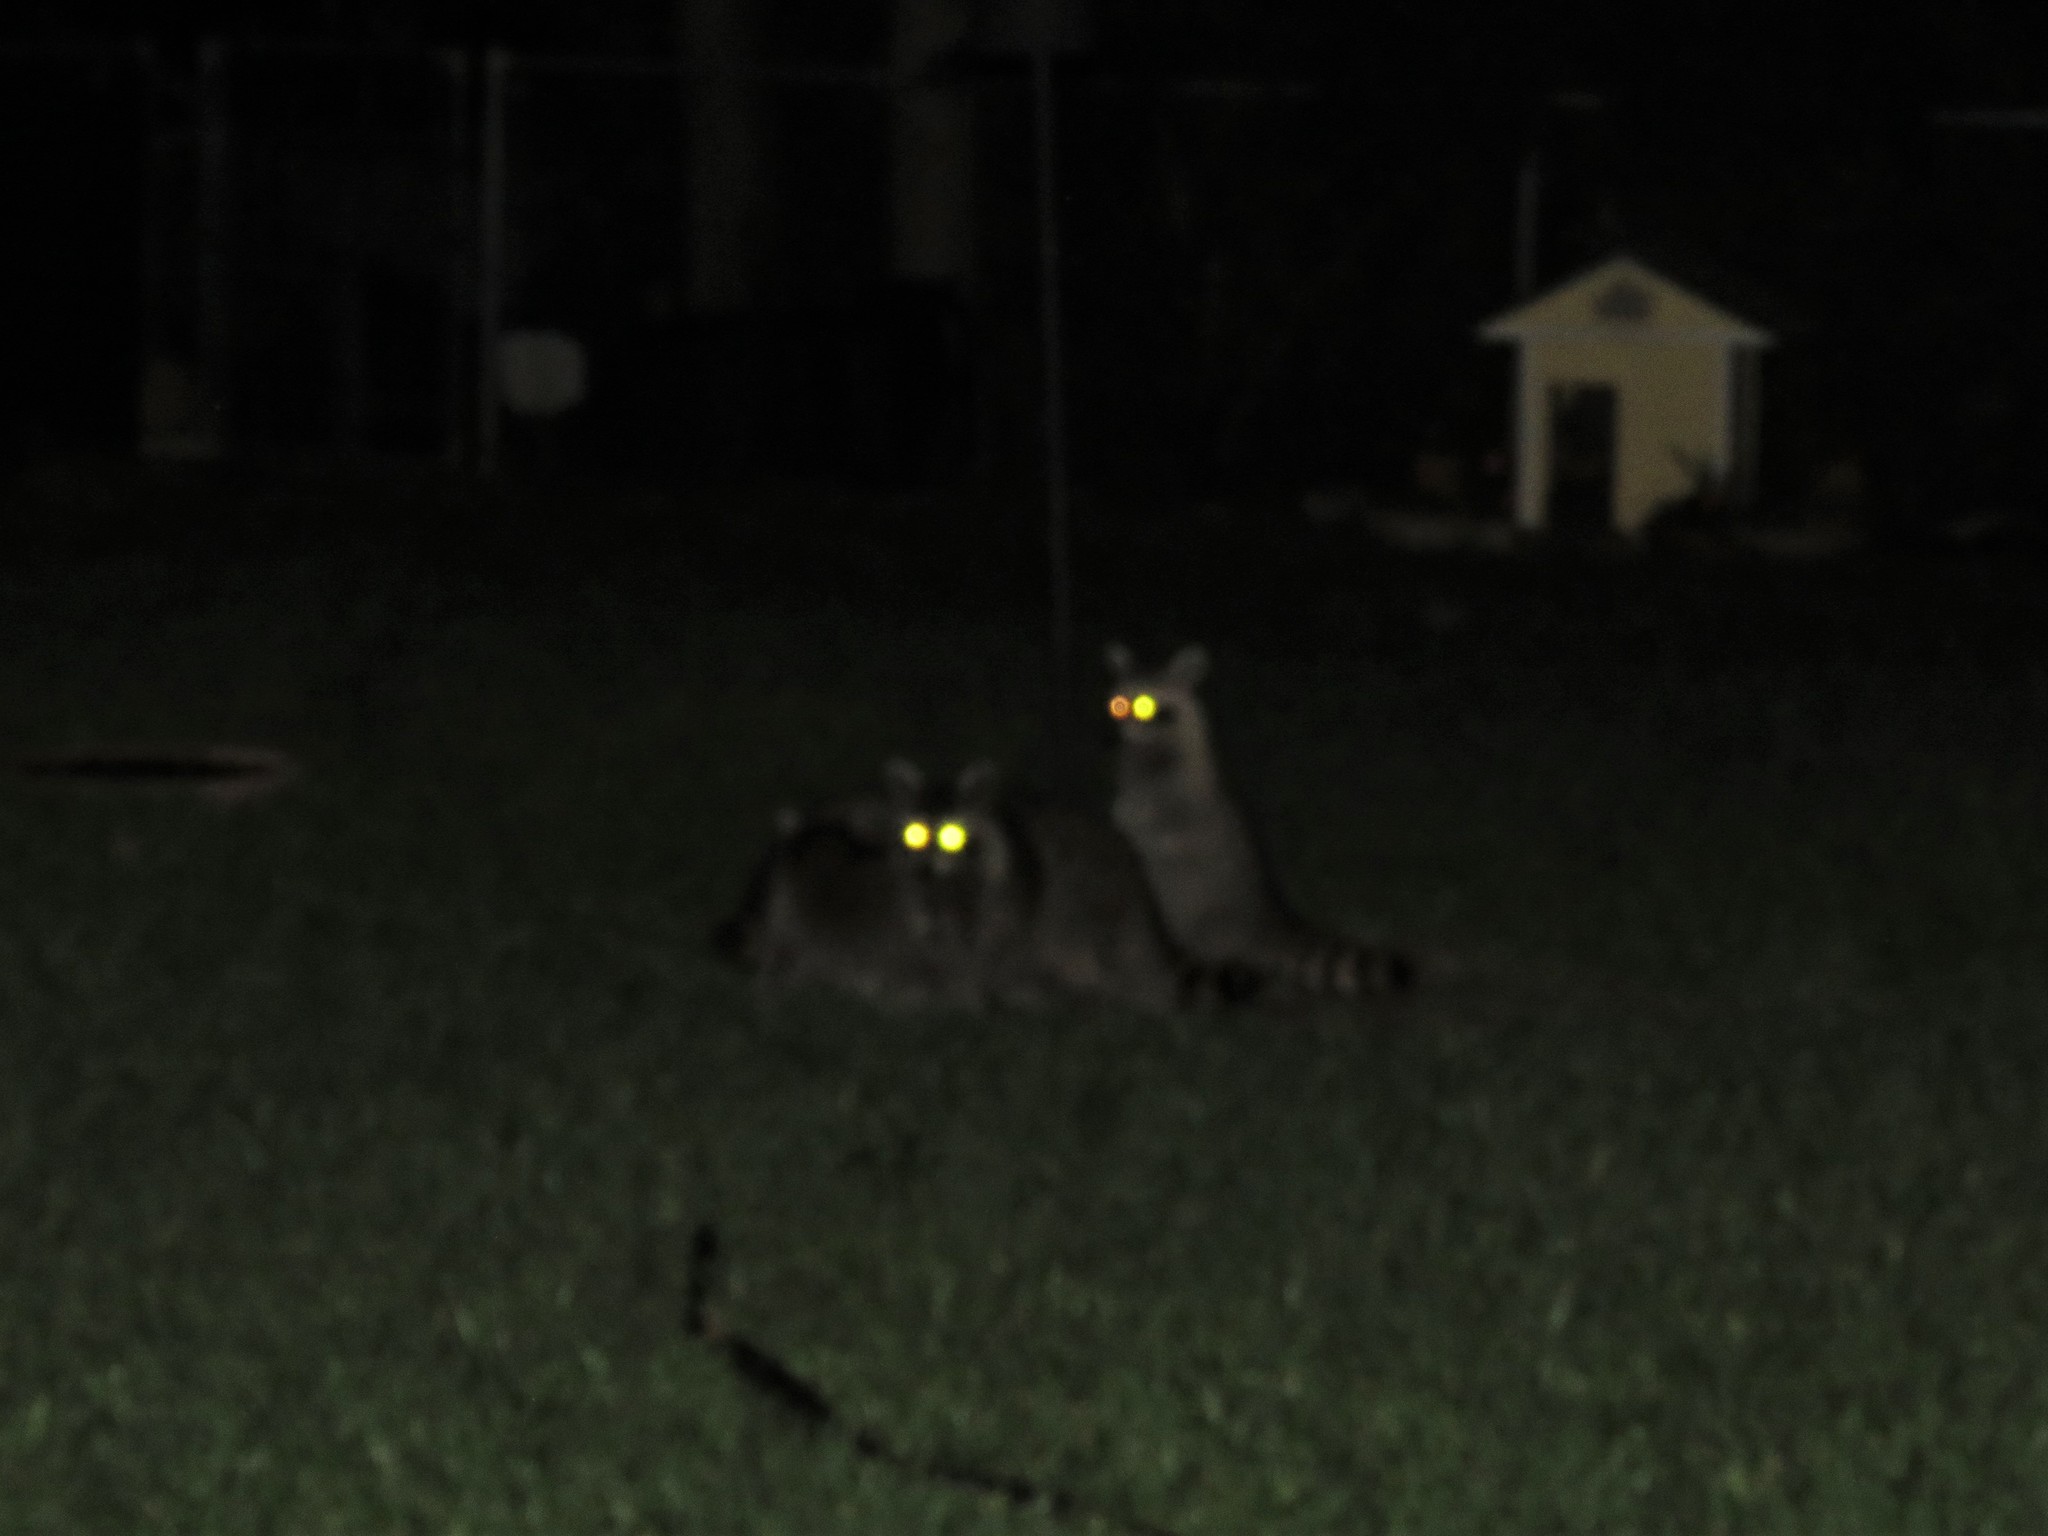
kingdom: Animalia
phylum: Chordata
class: Mammalia
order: Carnivora
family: Procyonidae
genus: Procyon
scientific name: Procyon lotor
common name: Raccoon
